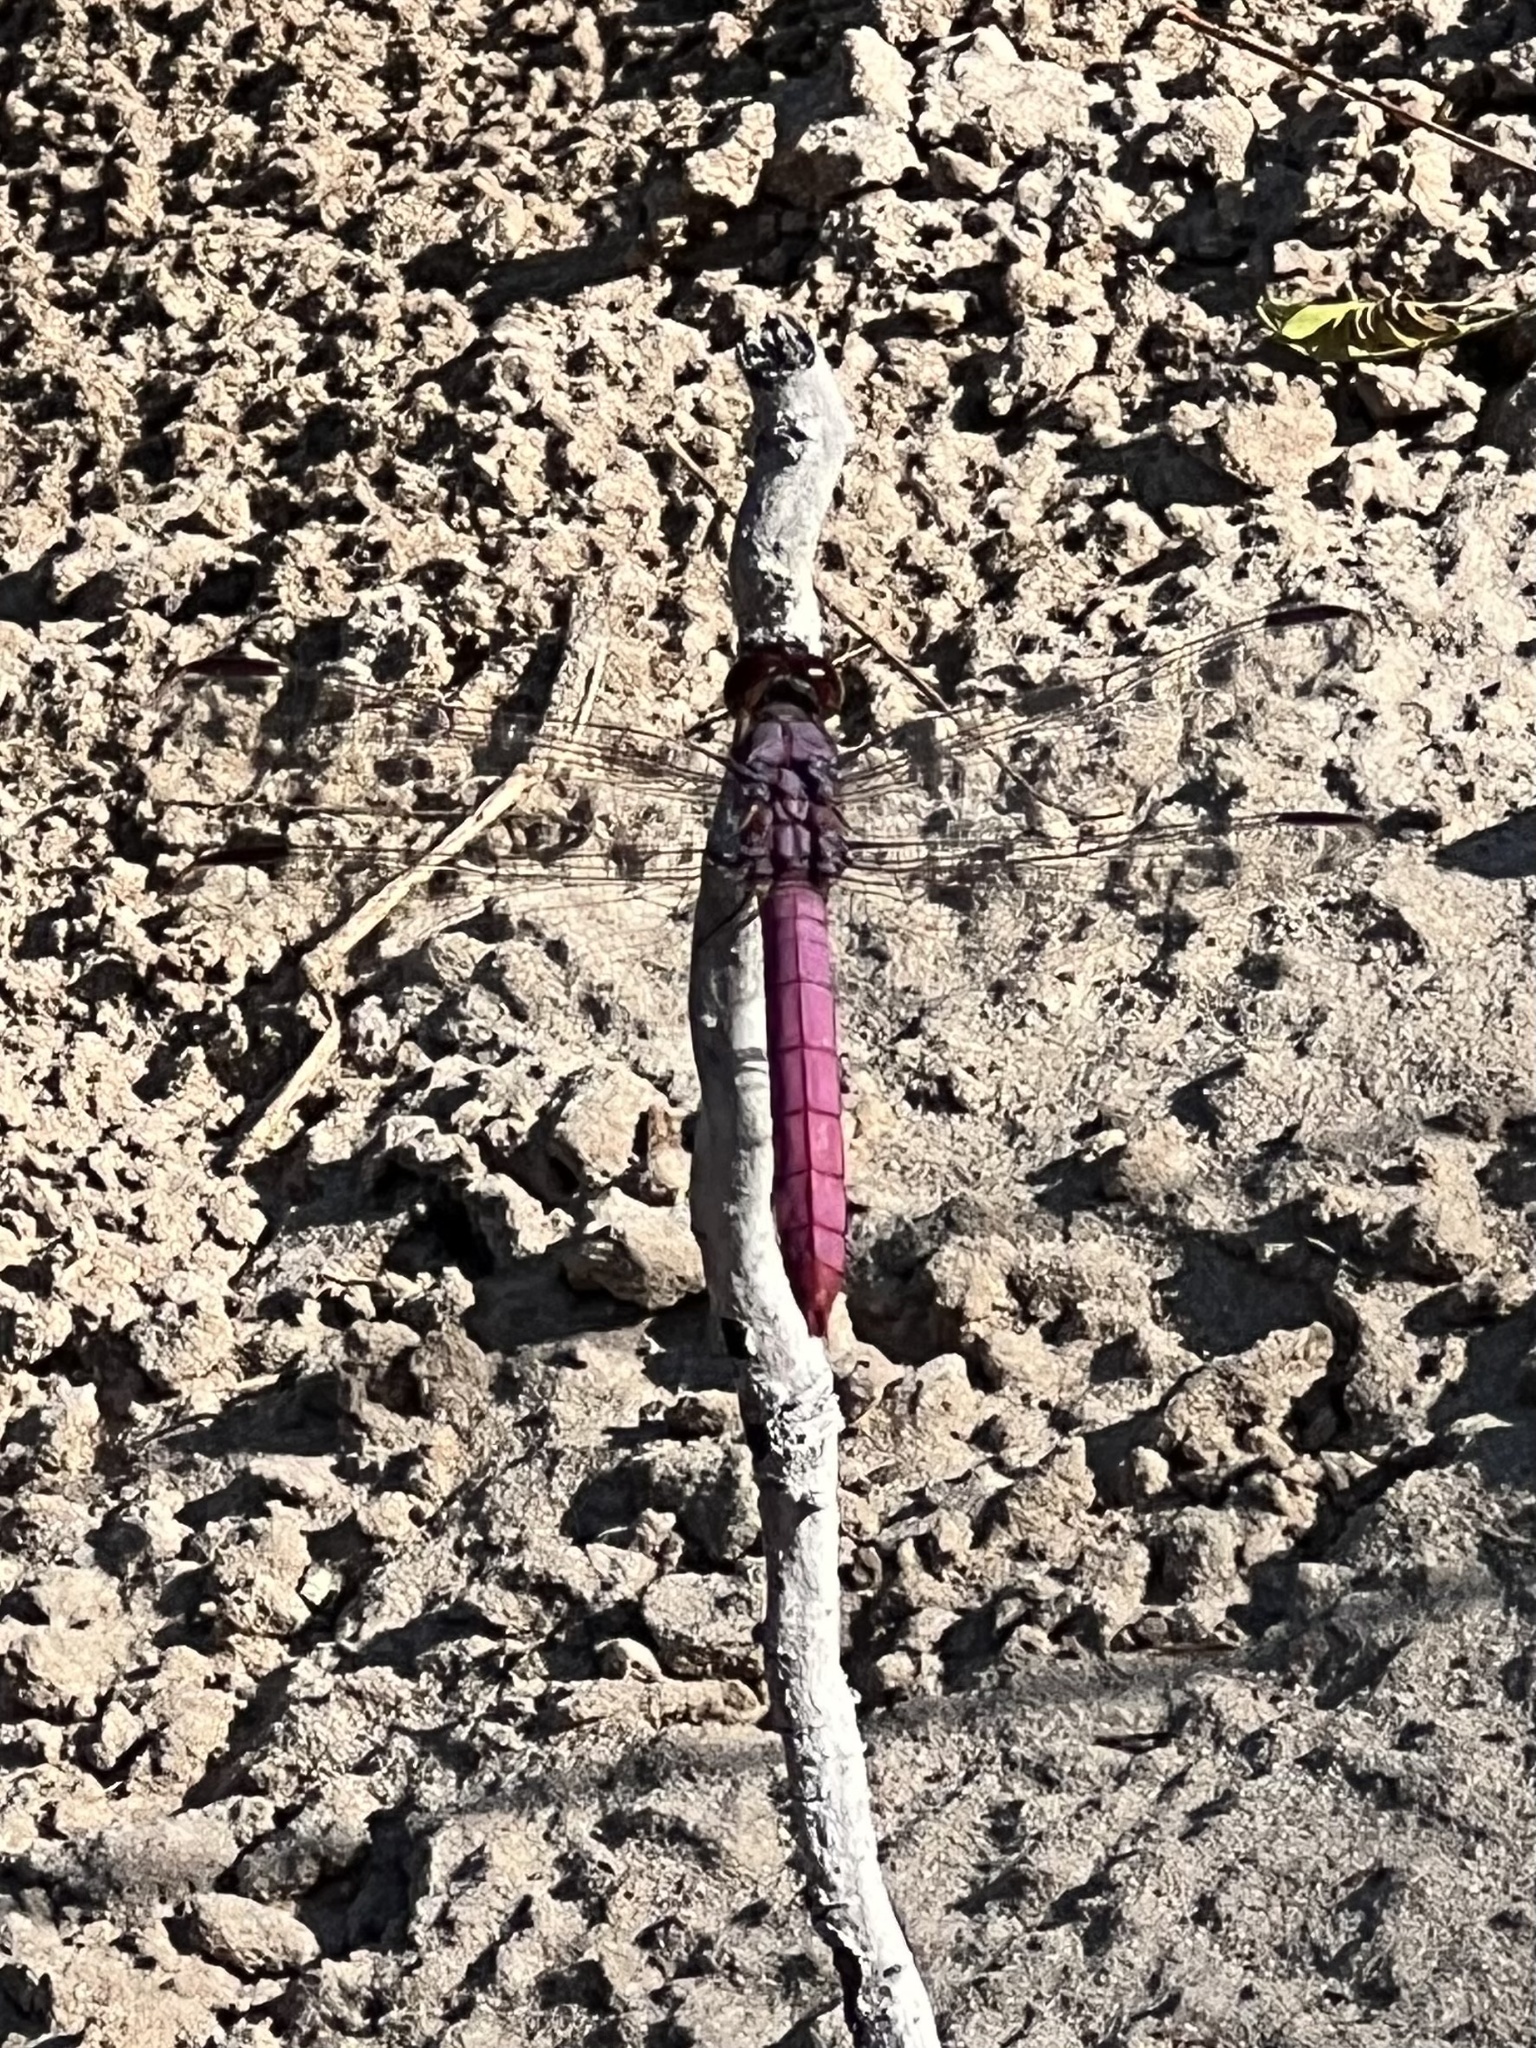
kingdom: Animalia
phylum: Arthropoda
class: Insecta
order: Odonata
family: Libellulidae
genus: Orthemis
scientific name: Orthemis ferruginea
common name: Roseate skimmer
